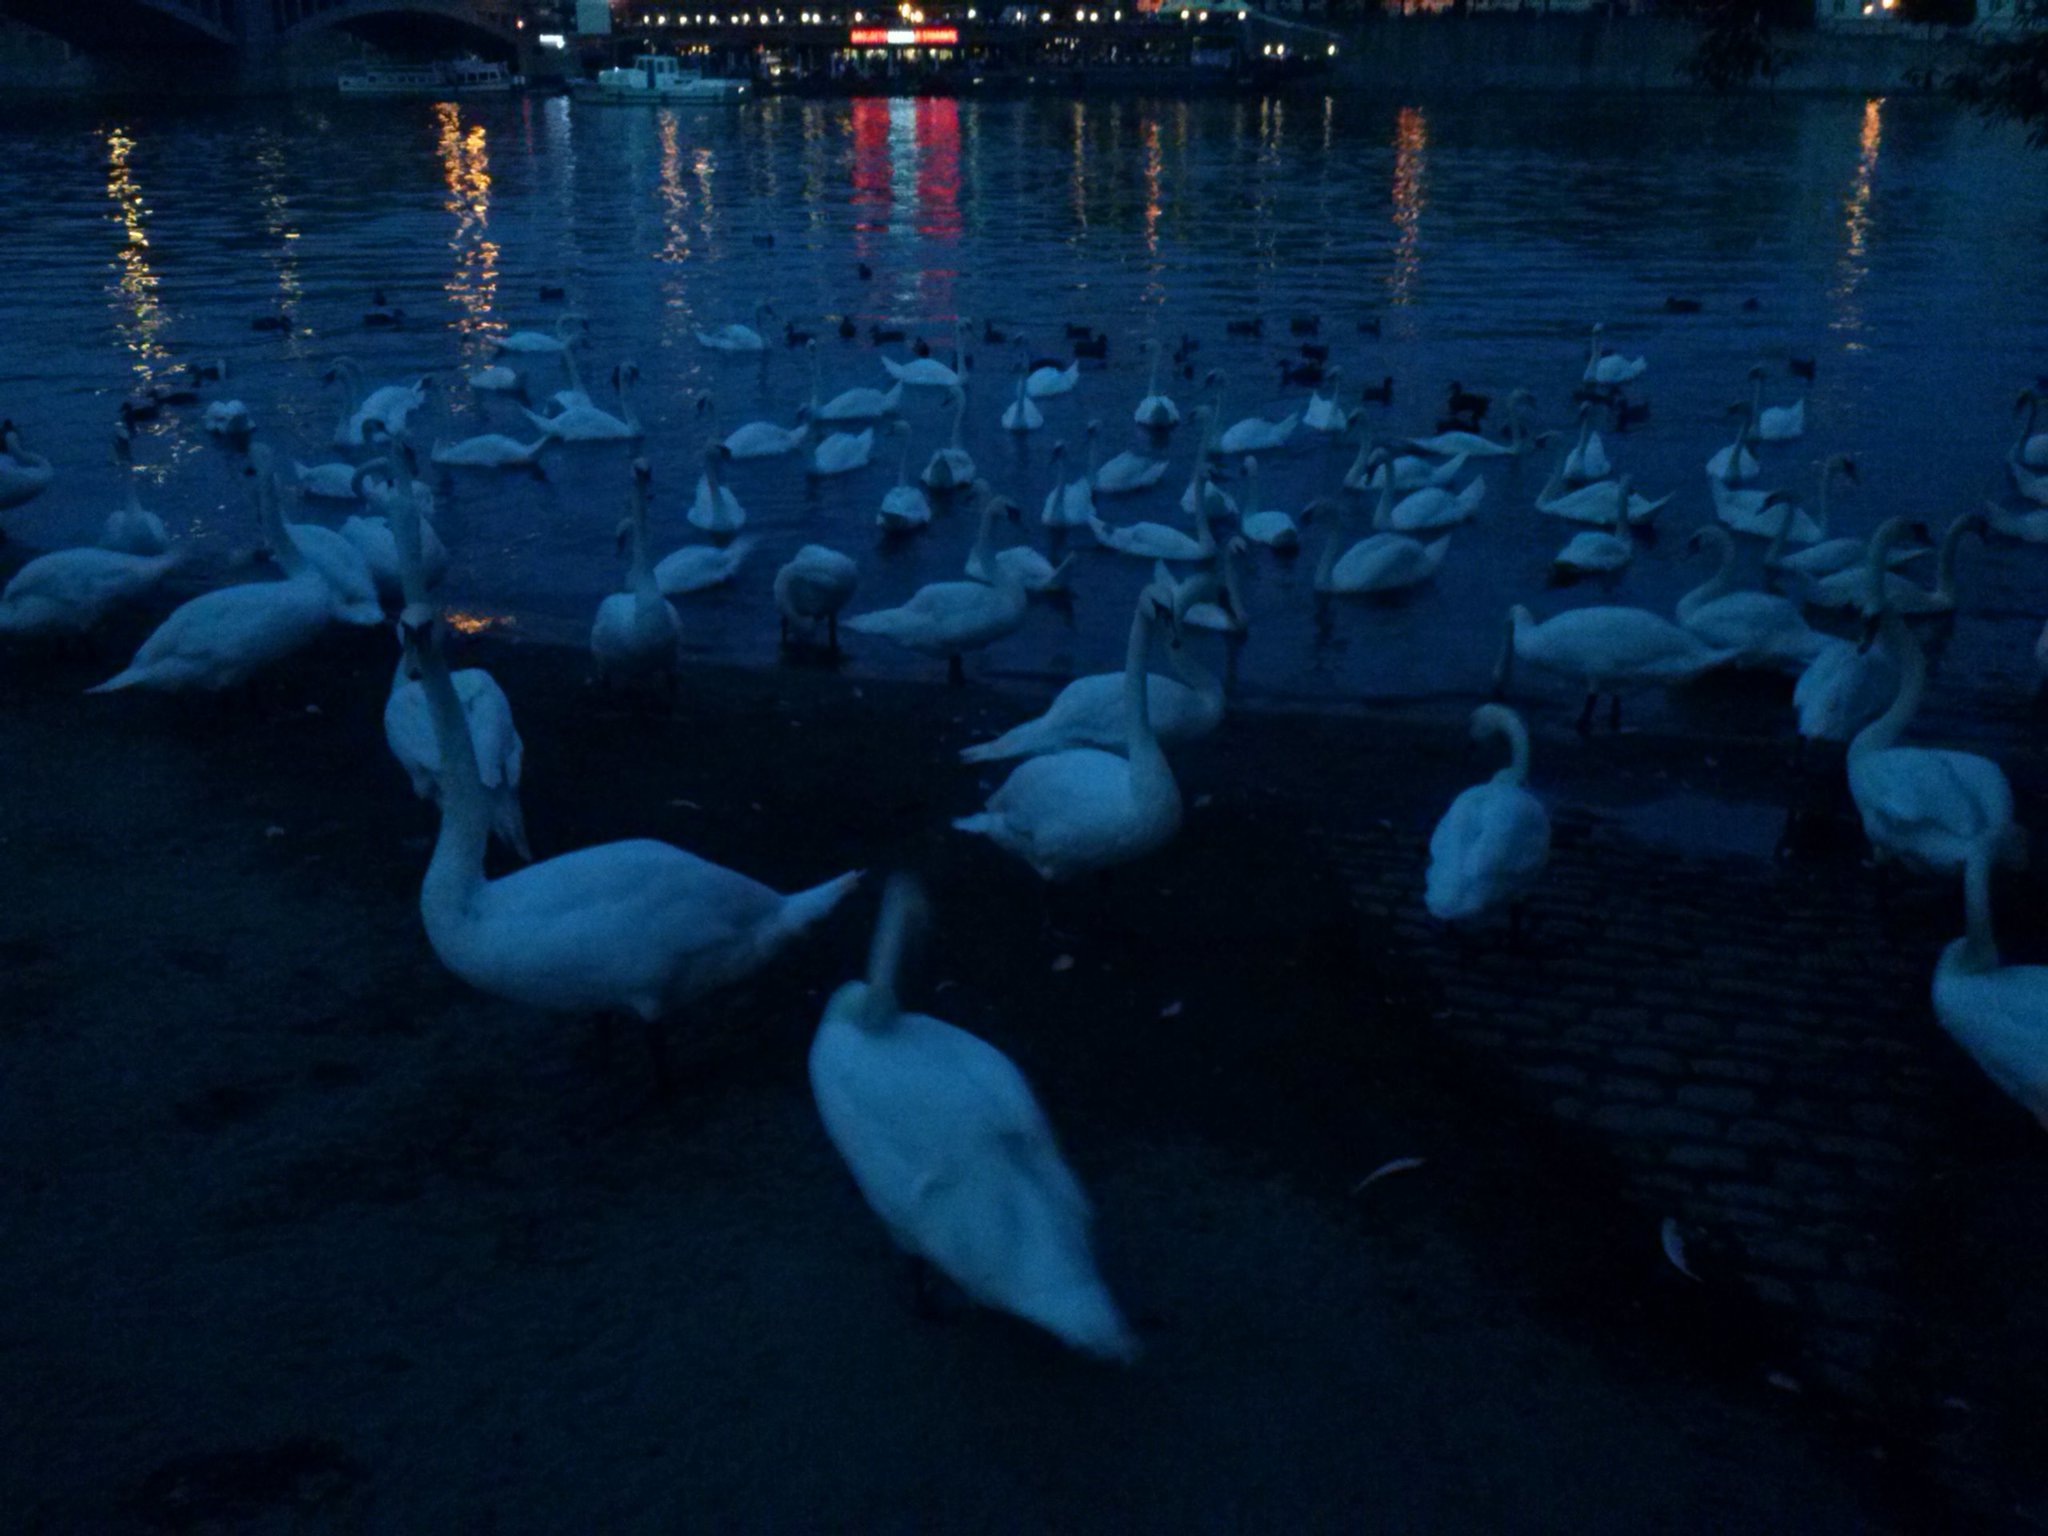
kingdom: Animalia
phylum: Chordata
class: Aves
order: Anseriformes
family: Anatidae
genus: Cygnus
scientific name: Cygnus olor
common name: Mute swan
